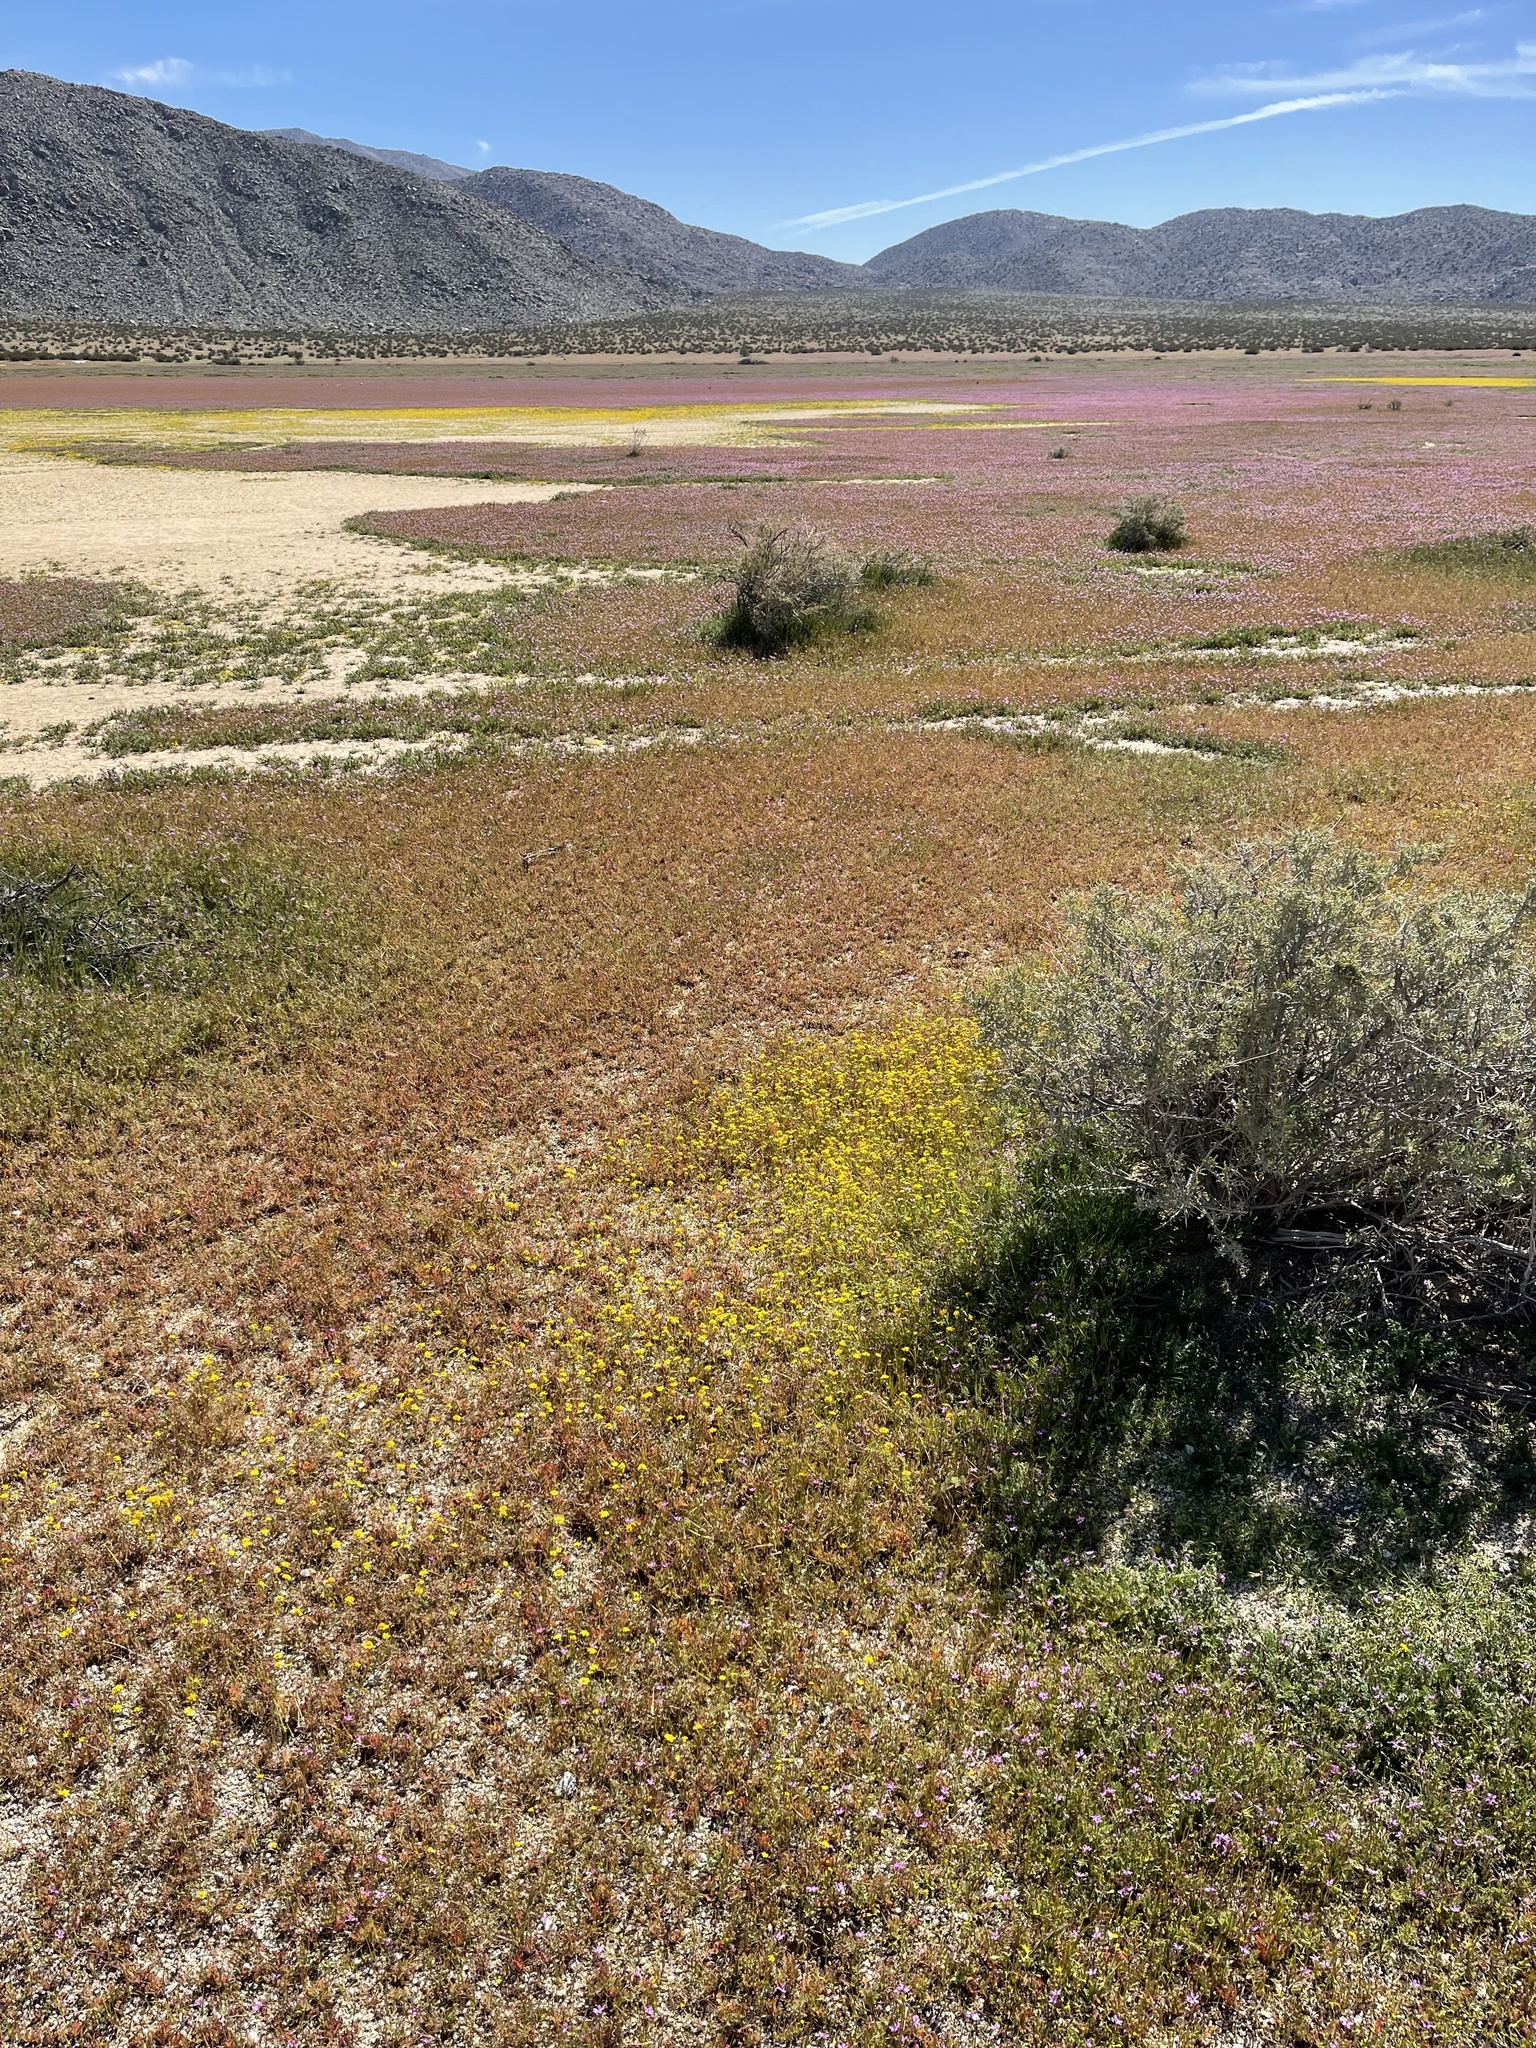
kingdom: Plantae
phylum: Tracheophyta
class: Magnoliopsida
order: Brassicales
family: Brassicaceae
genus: Lepidium
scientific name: Lepidium flavum
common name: Yellow pepperwort
